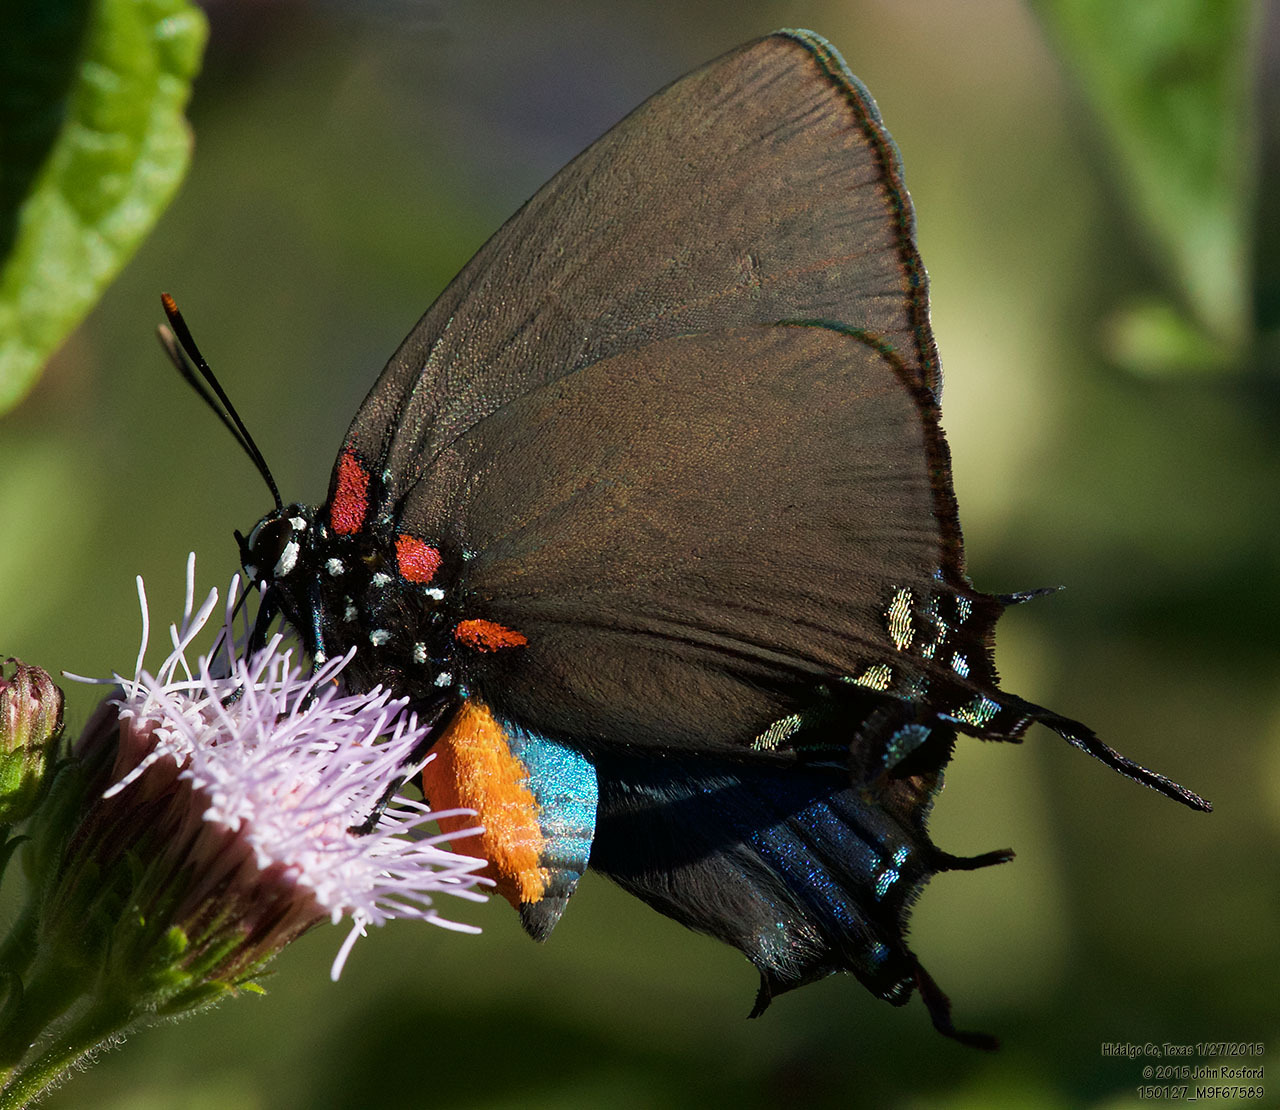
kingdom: Animalia
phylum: Arthropoda
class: Insecta
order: Lepidoptera
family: Lycaenidae
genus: Atlides
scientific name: Atlides halesus
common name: Great purple hairstreak
